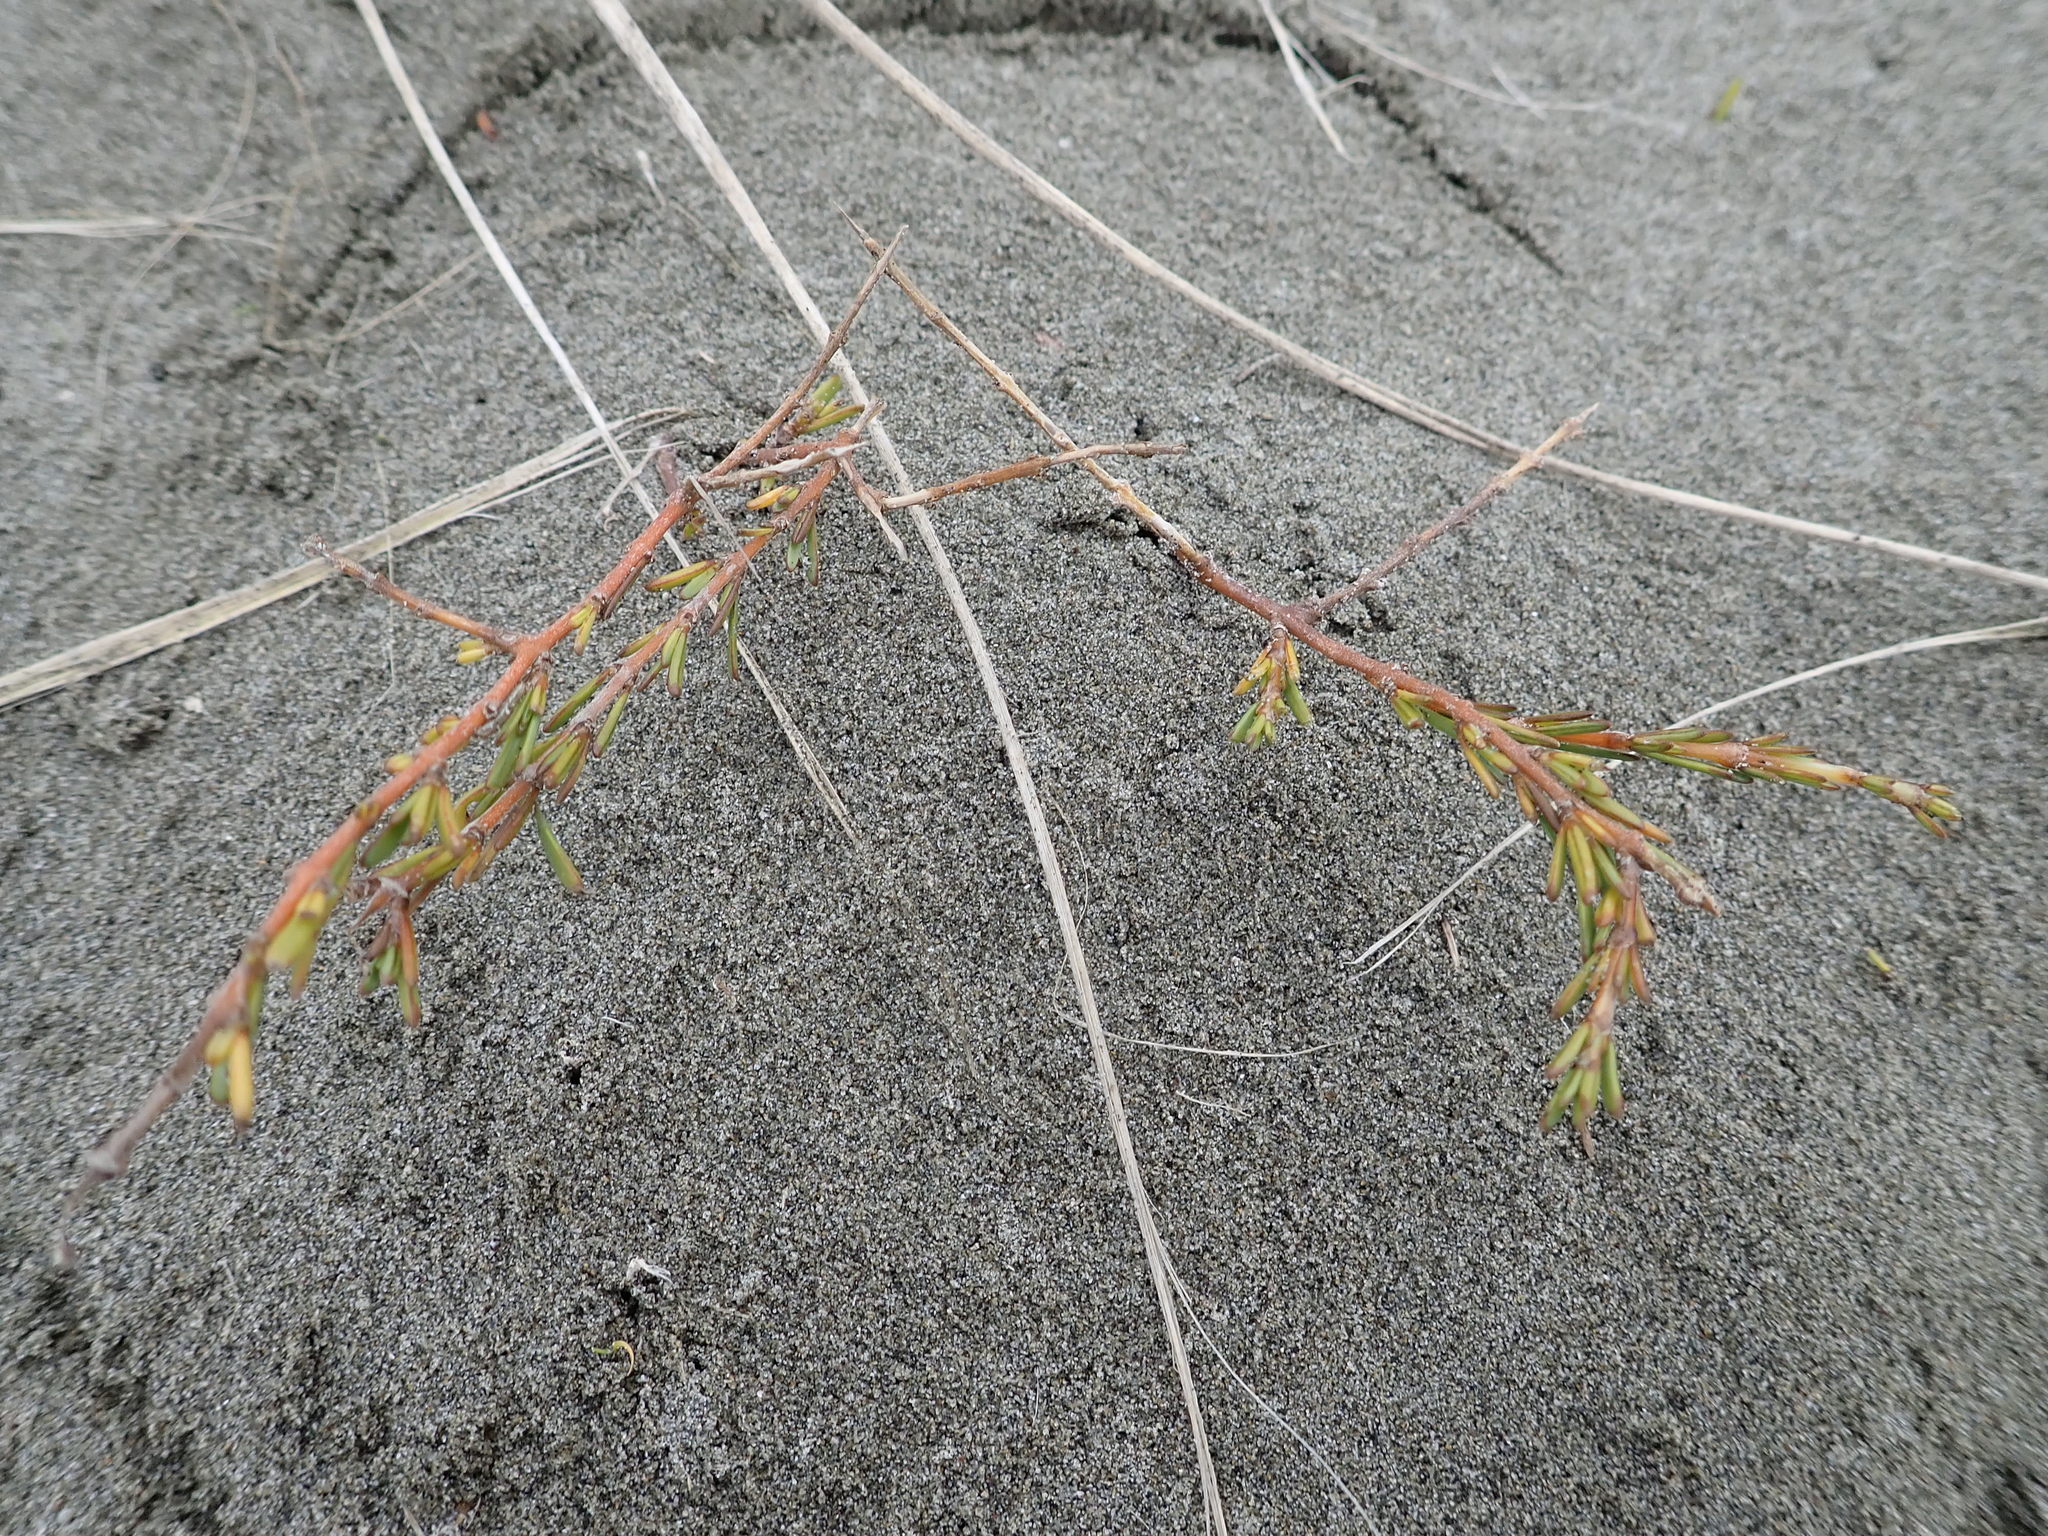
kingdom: Plantae
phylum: Tracheophyta
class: Magnoliopsida
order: Gentianales
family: Rubiaceae
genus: Coprosma
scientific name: Coprosma acerosa
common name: Sand coprosma
